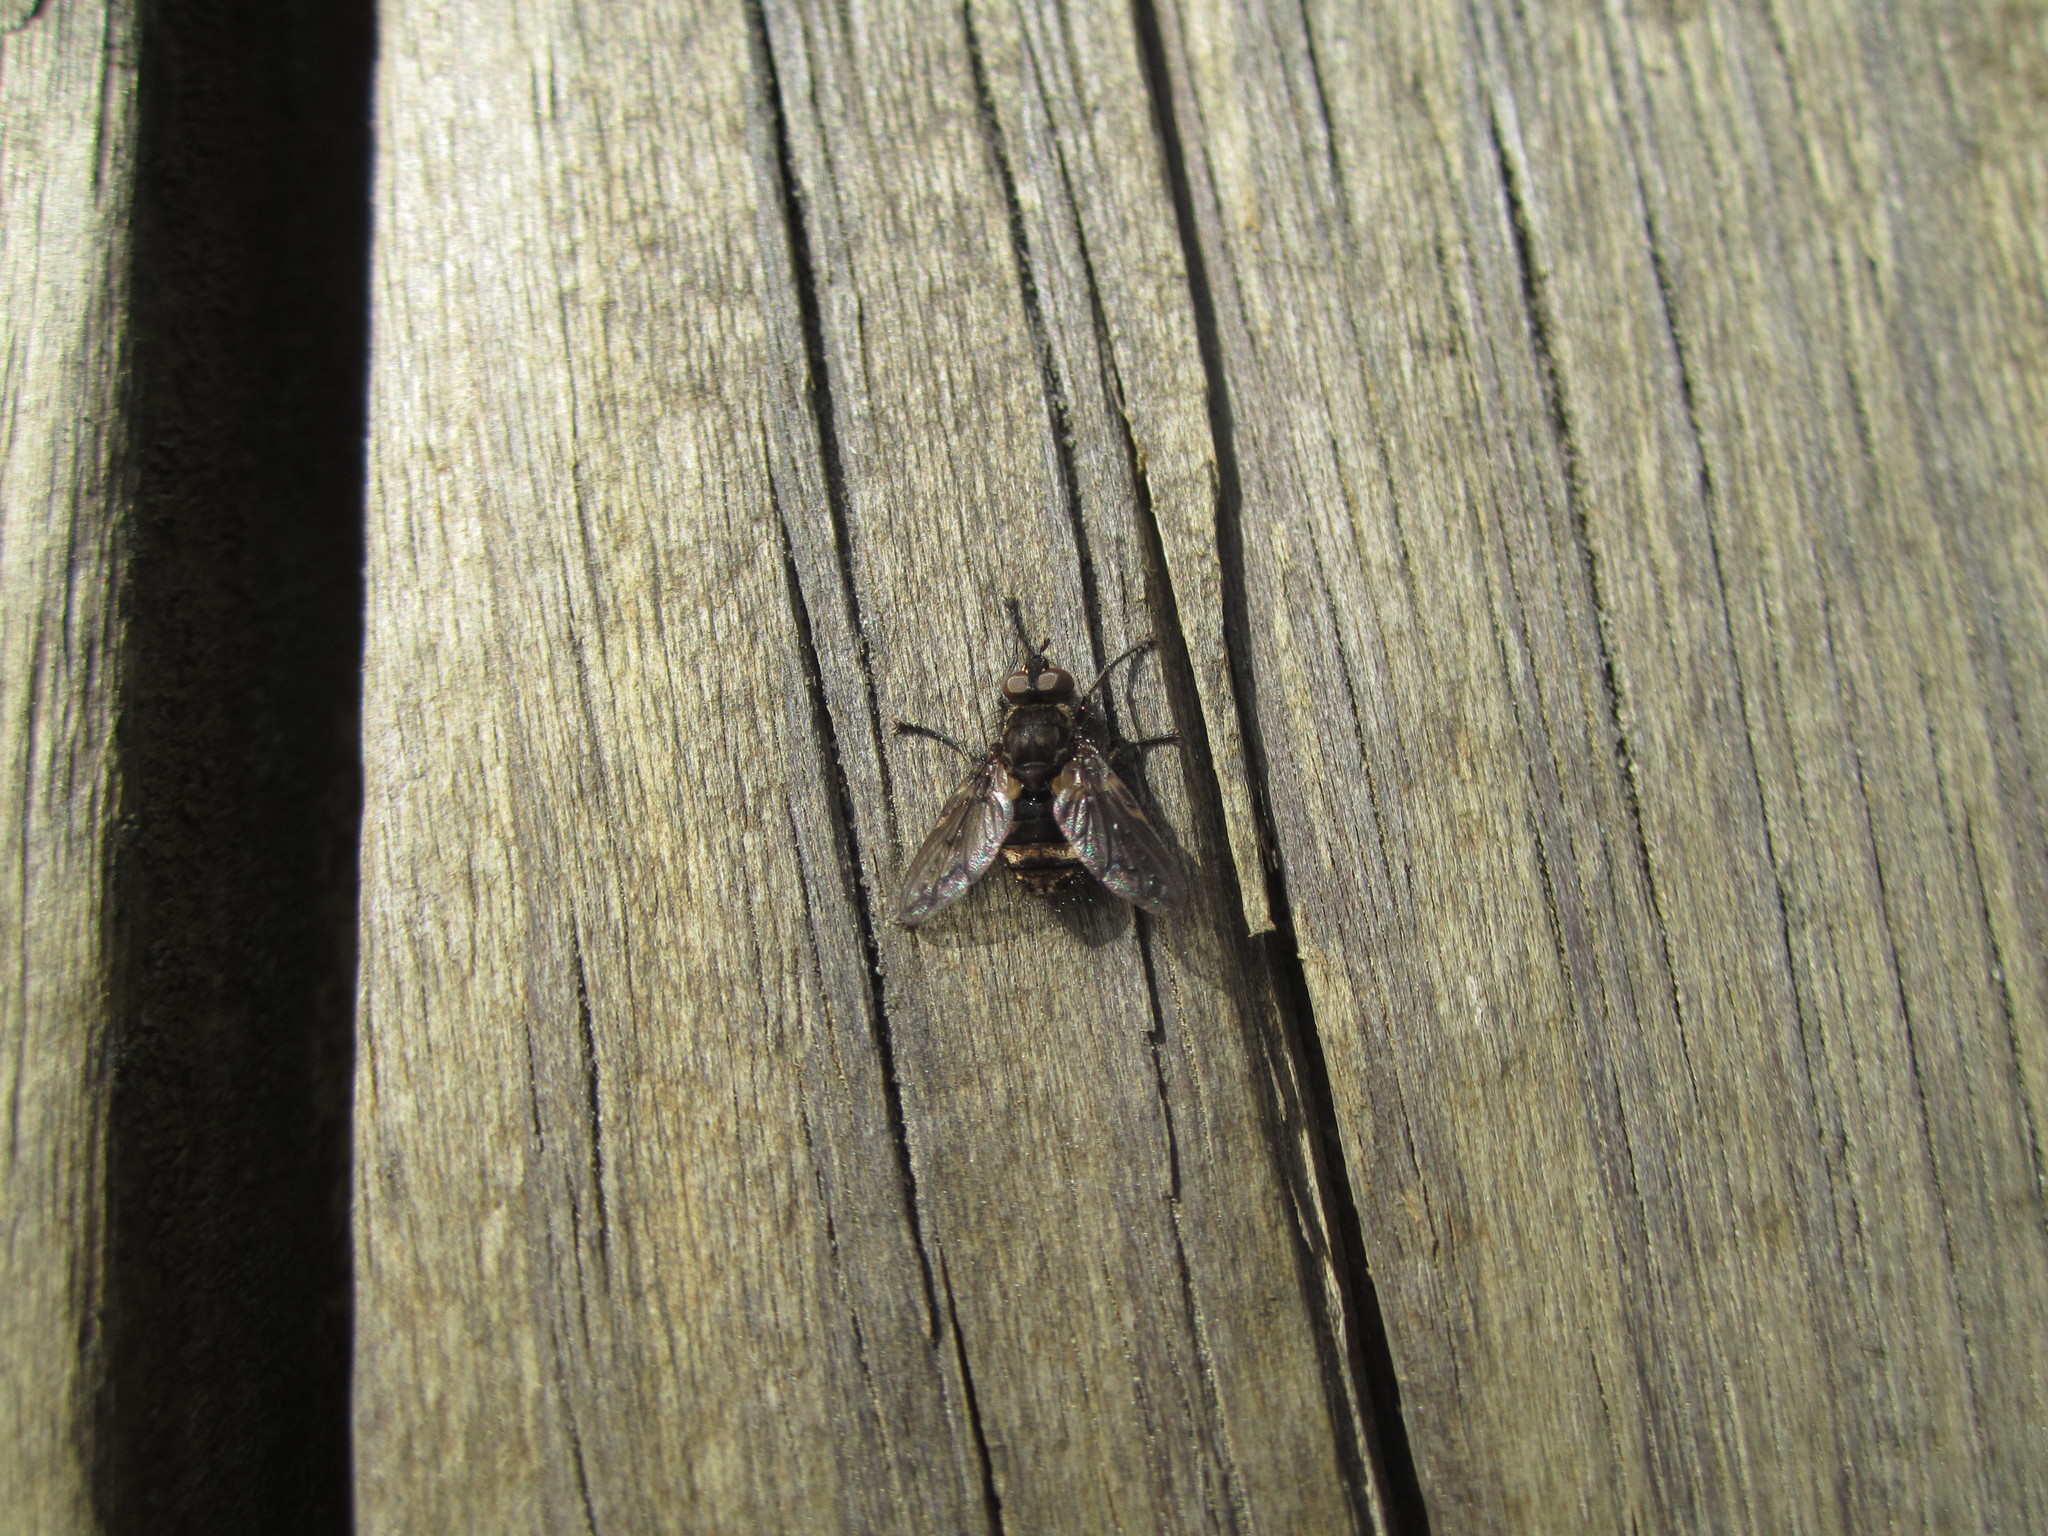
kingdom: Animalia
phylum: Arthropoda
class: Insecta
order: Diptera
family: Tachinidae
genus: Mallochomacquartia
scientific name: Mallochomacquartia vexata
